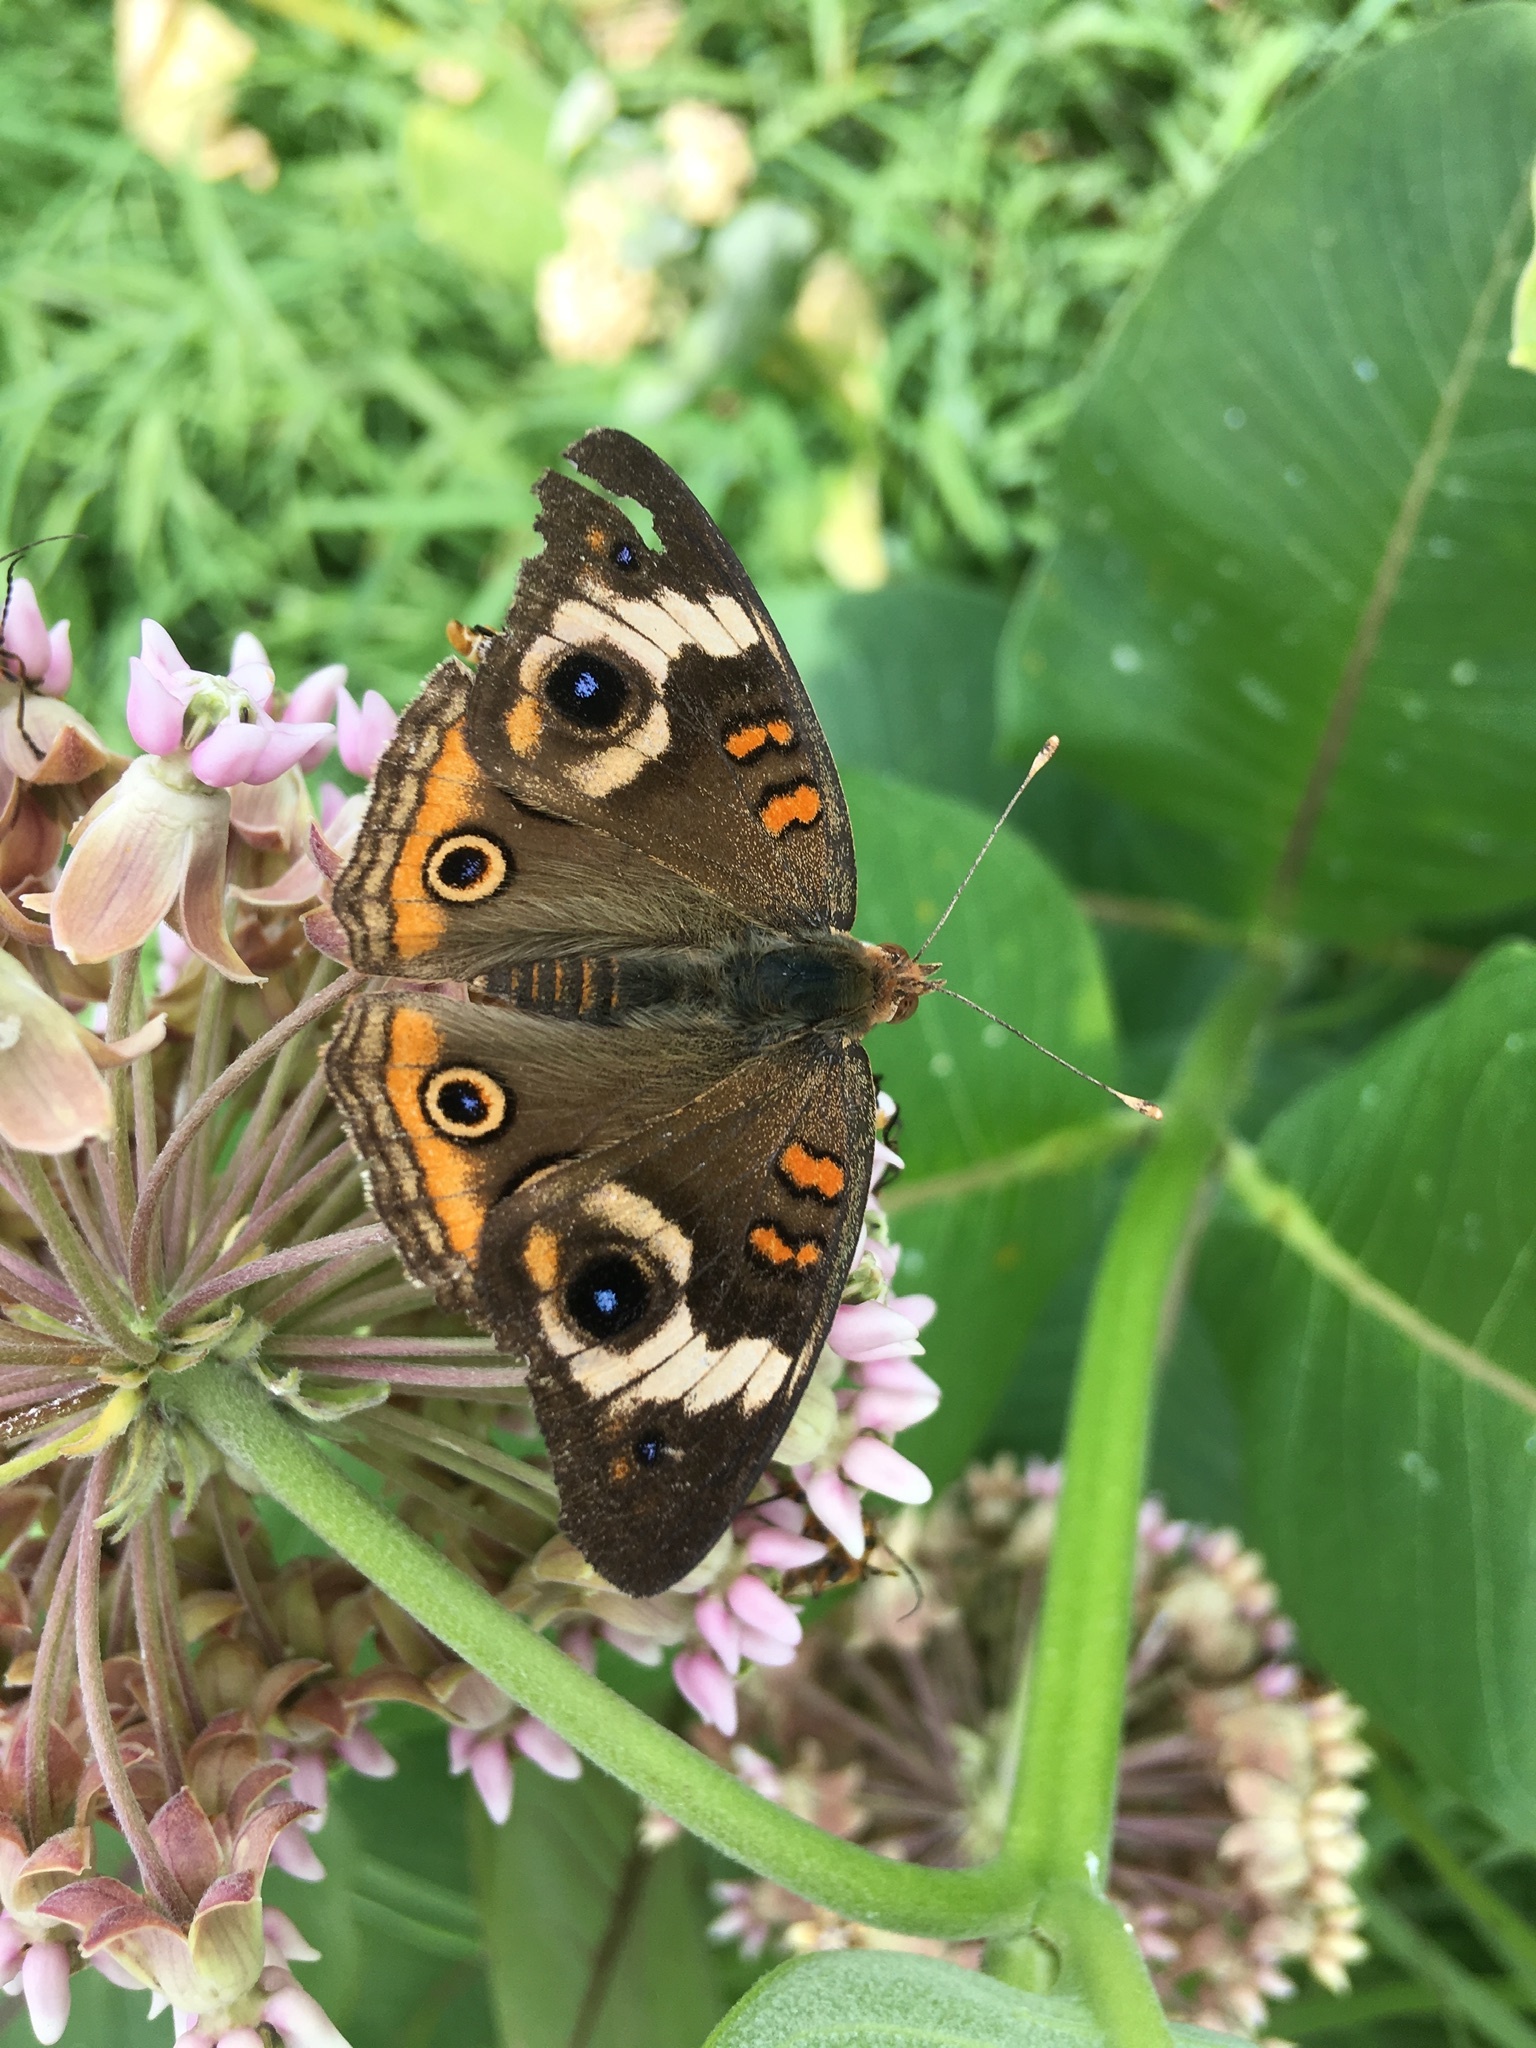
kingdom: Animalia
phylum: Arthropoda
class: Insecta
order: Lepidoptera
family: Nymphalidae
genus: Junonia
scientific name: Junonia coenia
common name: Common buckeye
